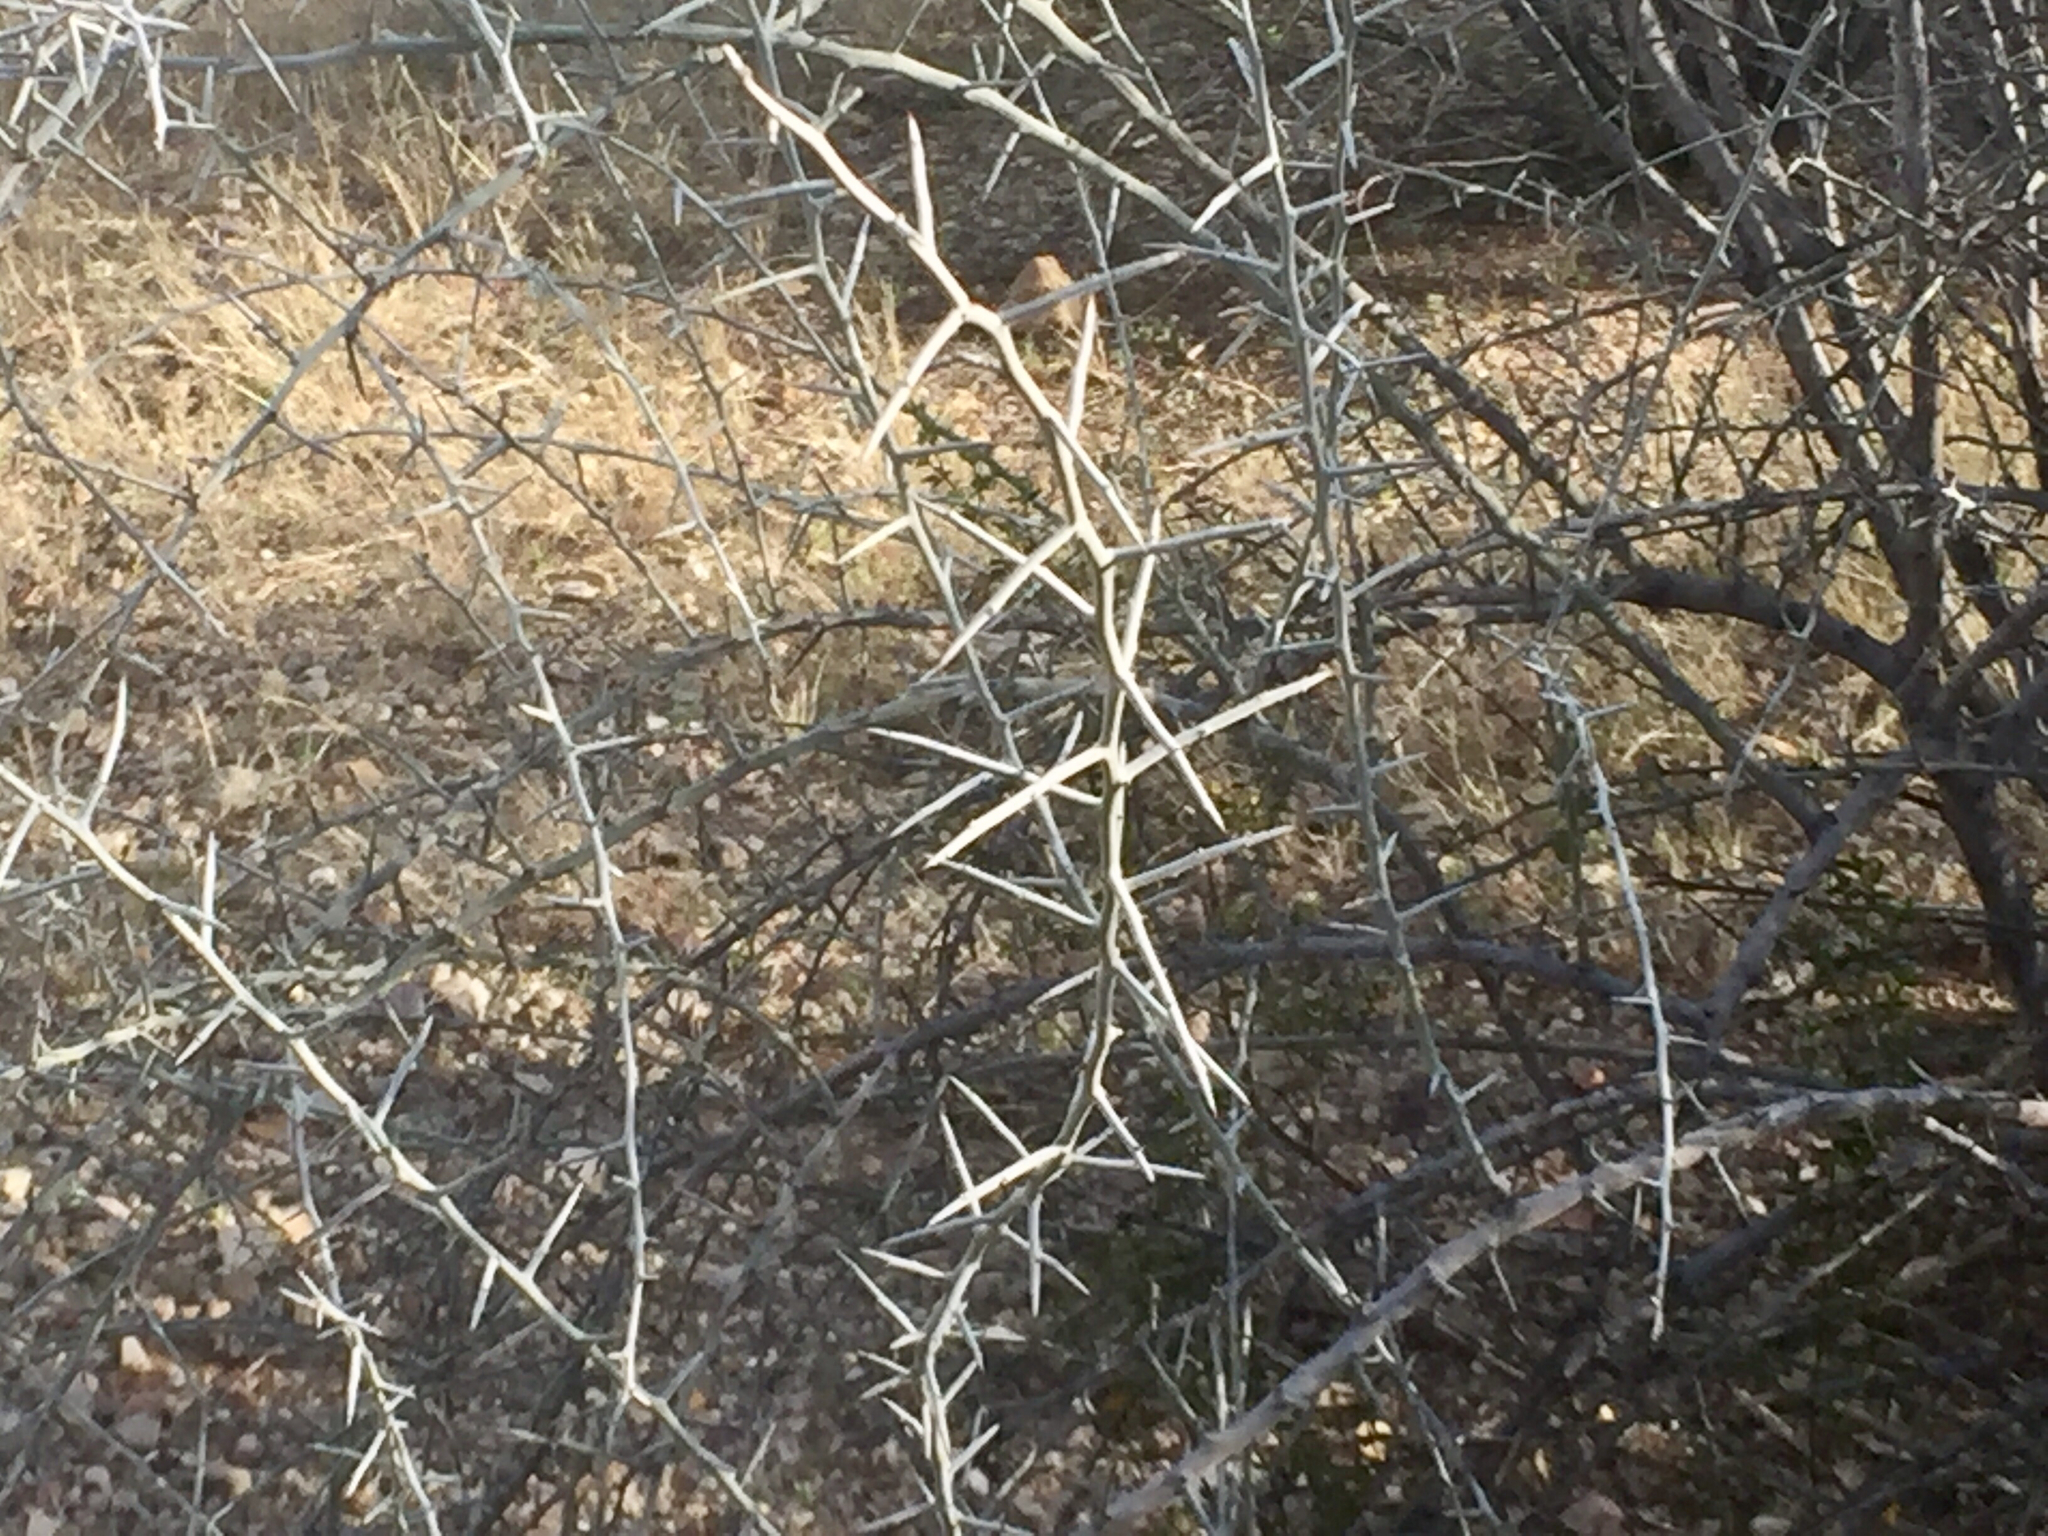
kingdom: Plantae
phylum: Tracheophyta
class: Magnoliopsida
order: Rosales
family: Rhamnaceae
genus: Sarcomphalus
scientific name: Sarcomphalus obtusifolius
